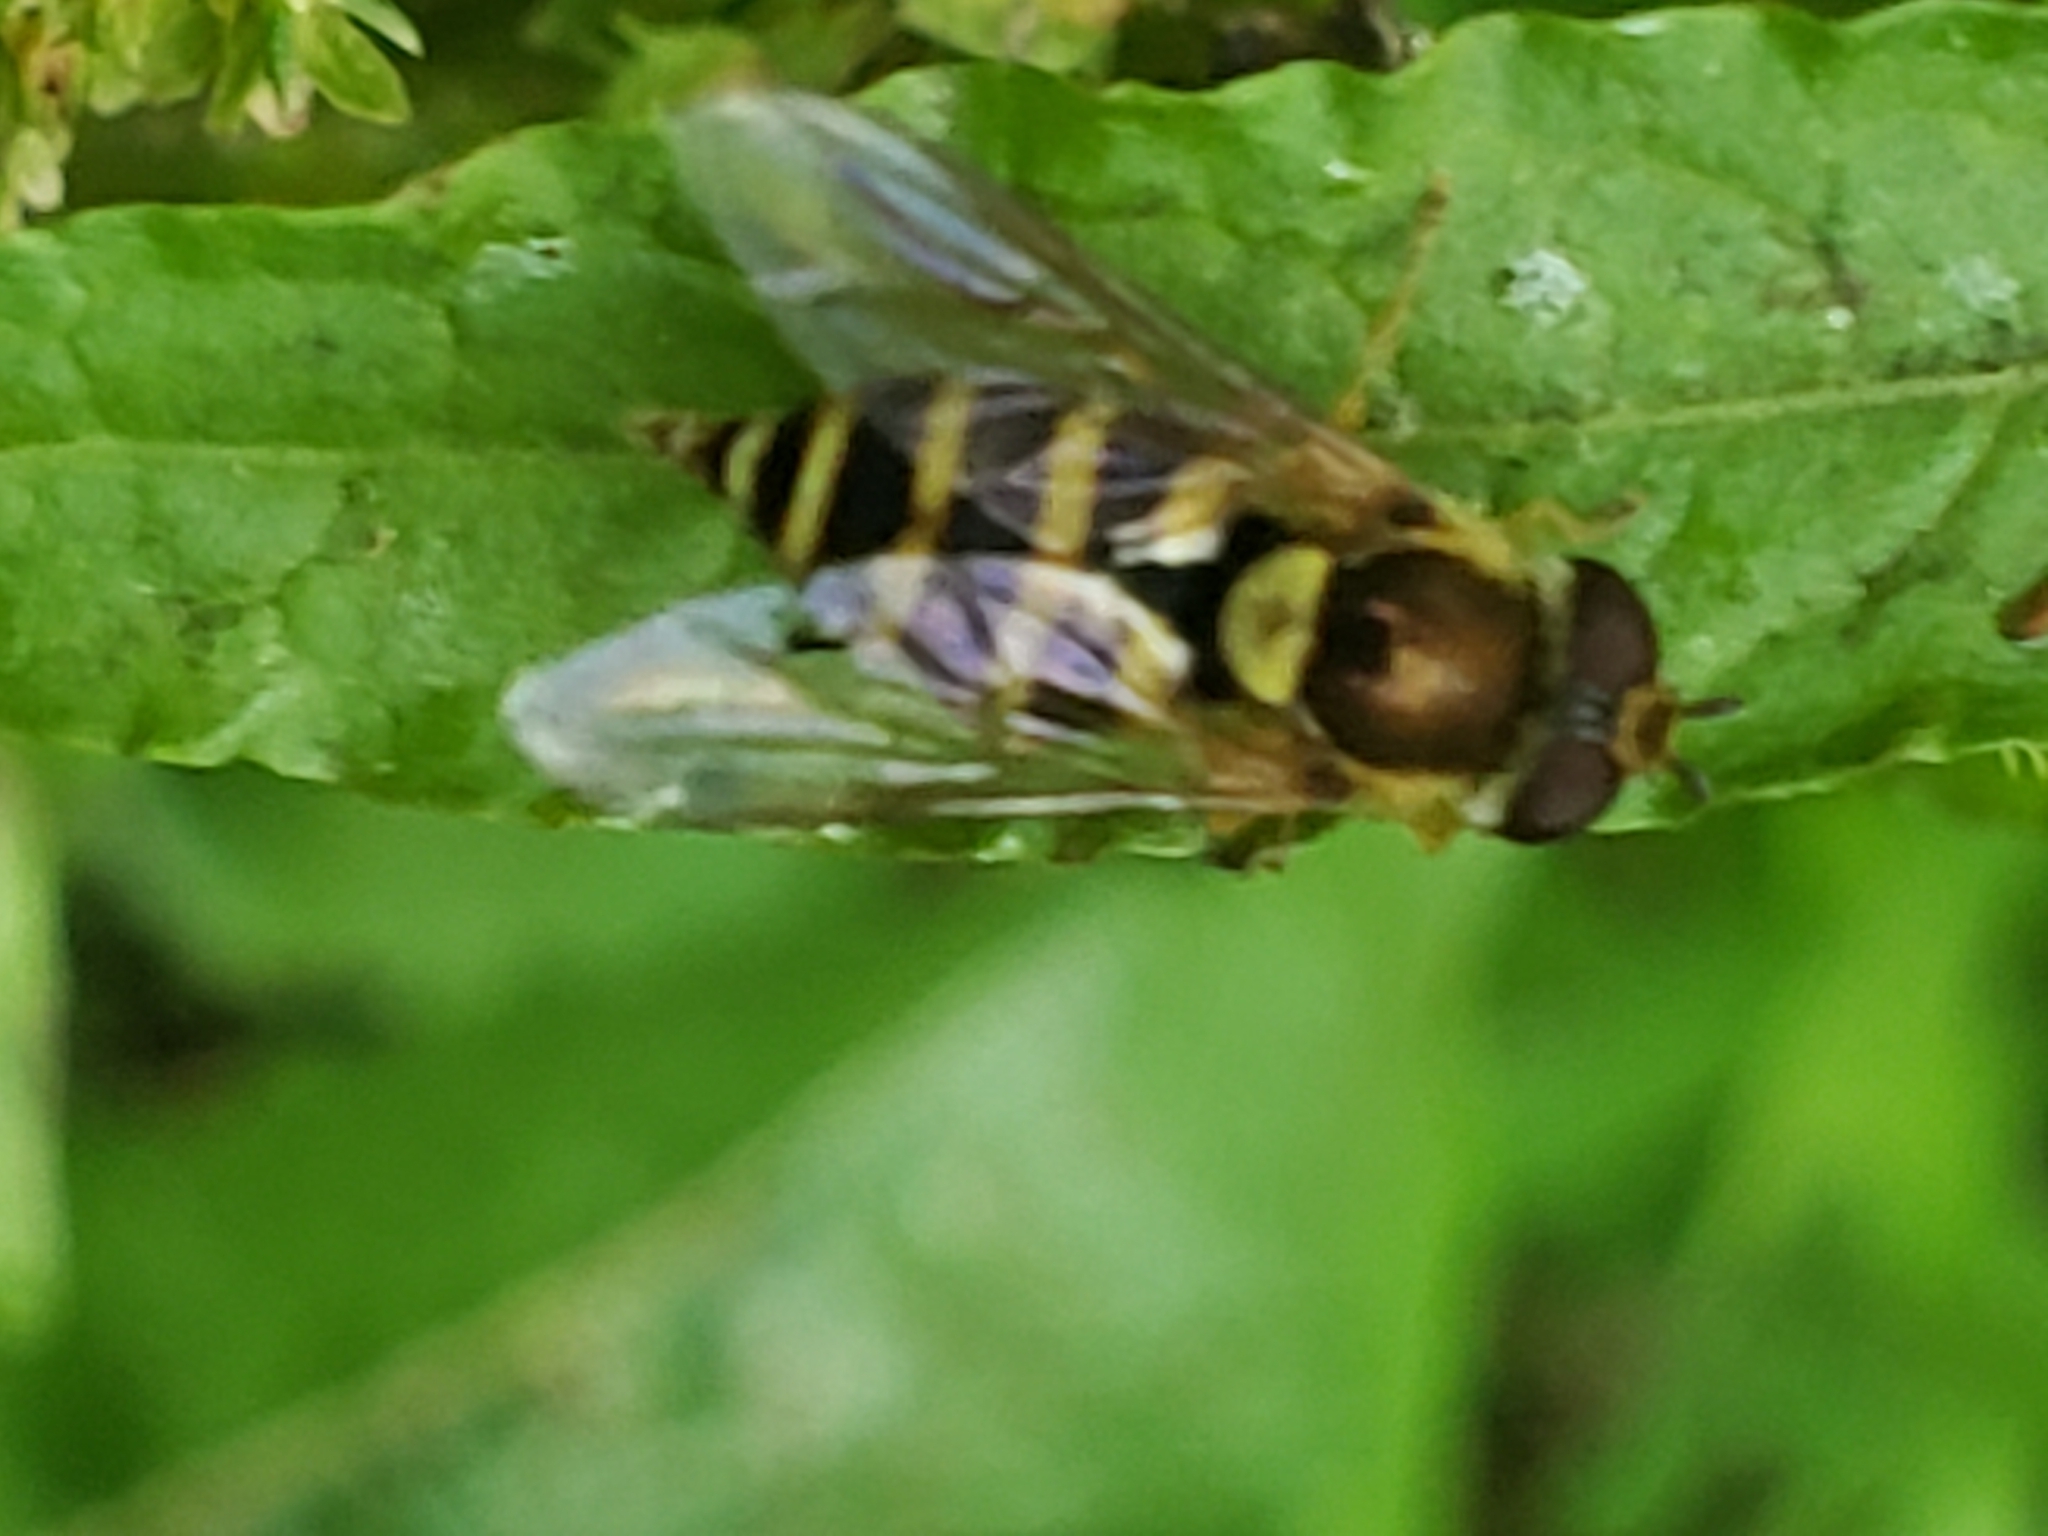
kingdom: Animalia
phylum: Arthropoda
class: Insecta
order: Diptera
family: Syrphidae
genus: Syrphus
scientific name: Syrphus
